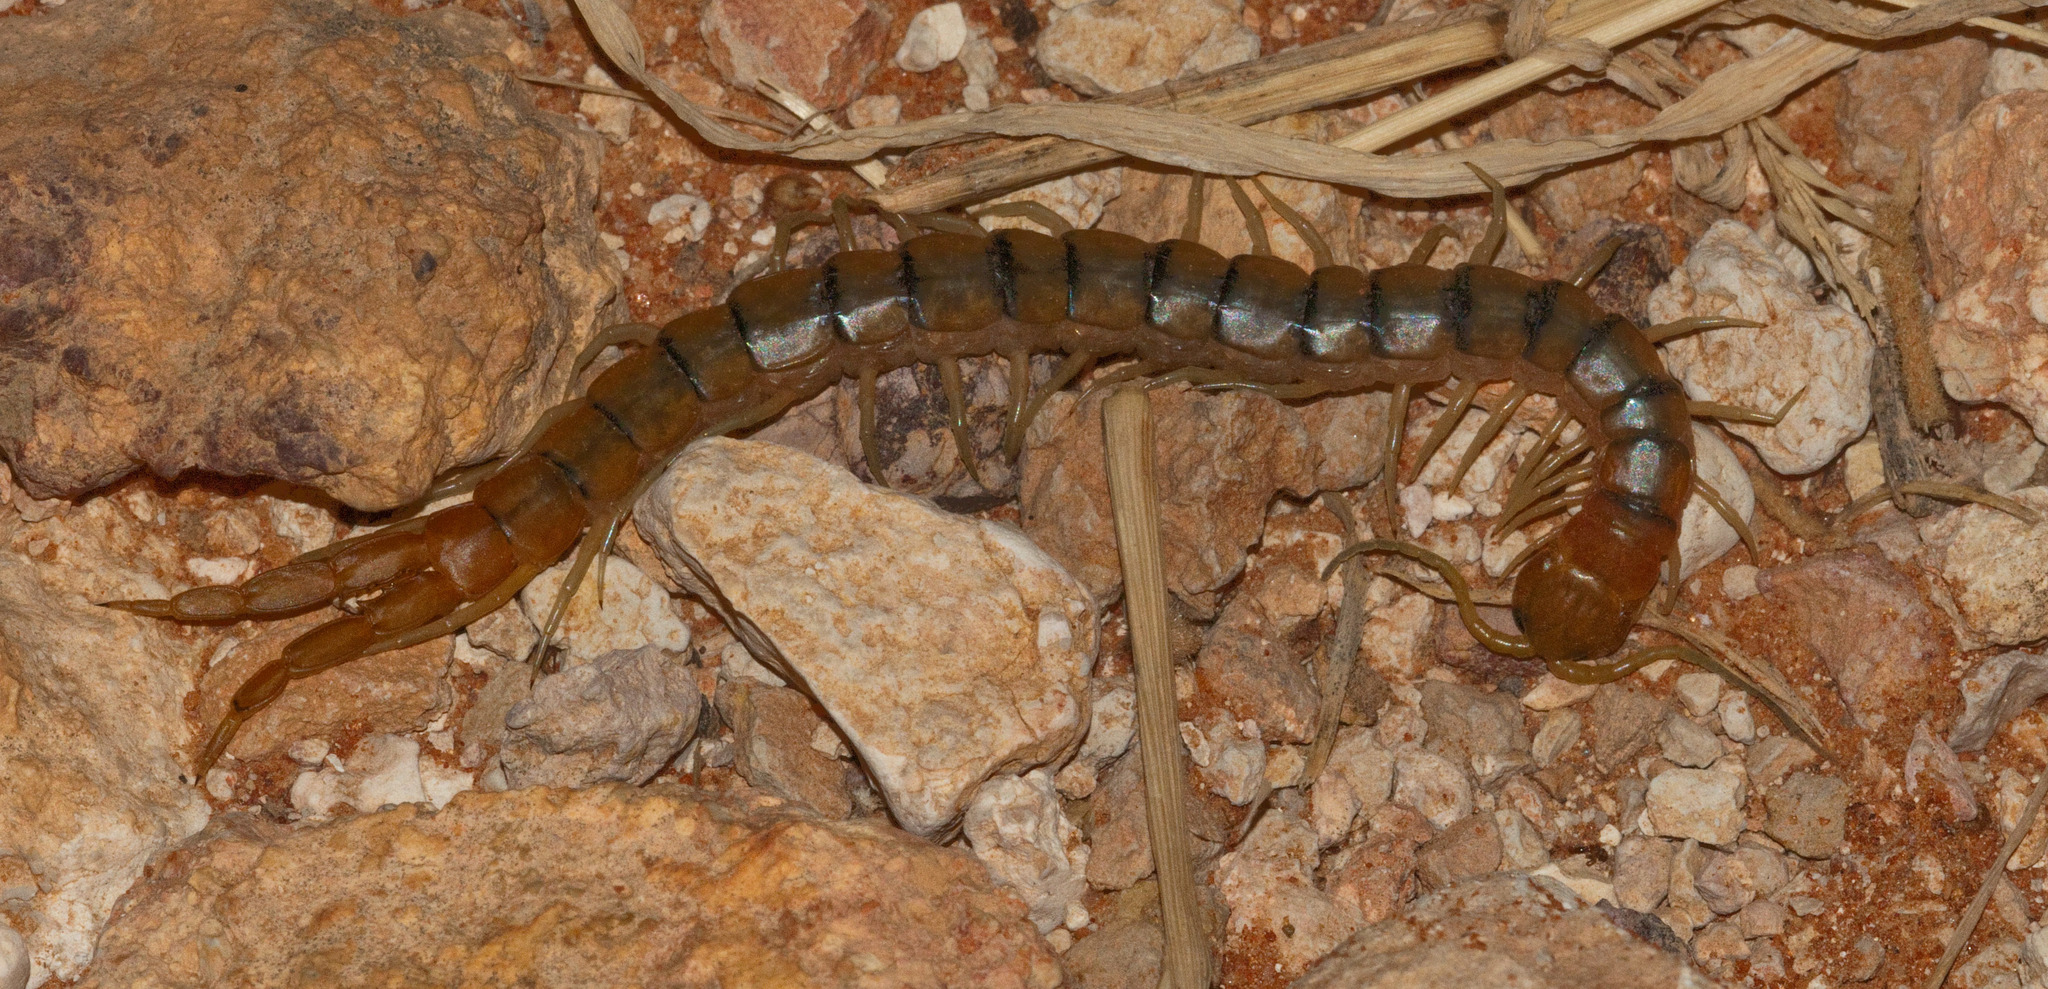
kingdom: Animalia
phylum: Arthropoda
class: Chilopoda
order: Scolopendromorpha
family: Scolopendridae
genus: Scolopendra
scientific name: Scolopendra morsitans
